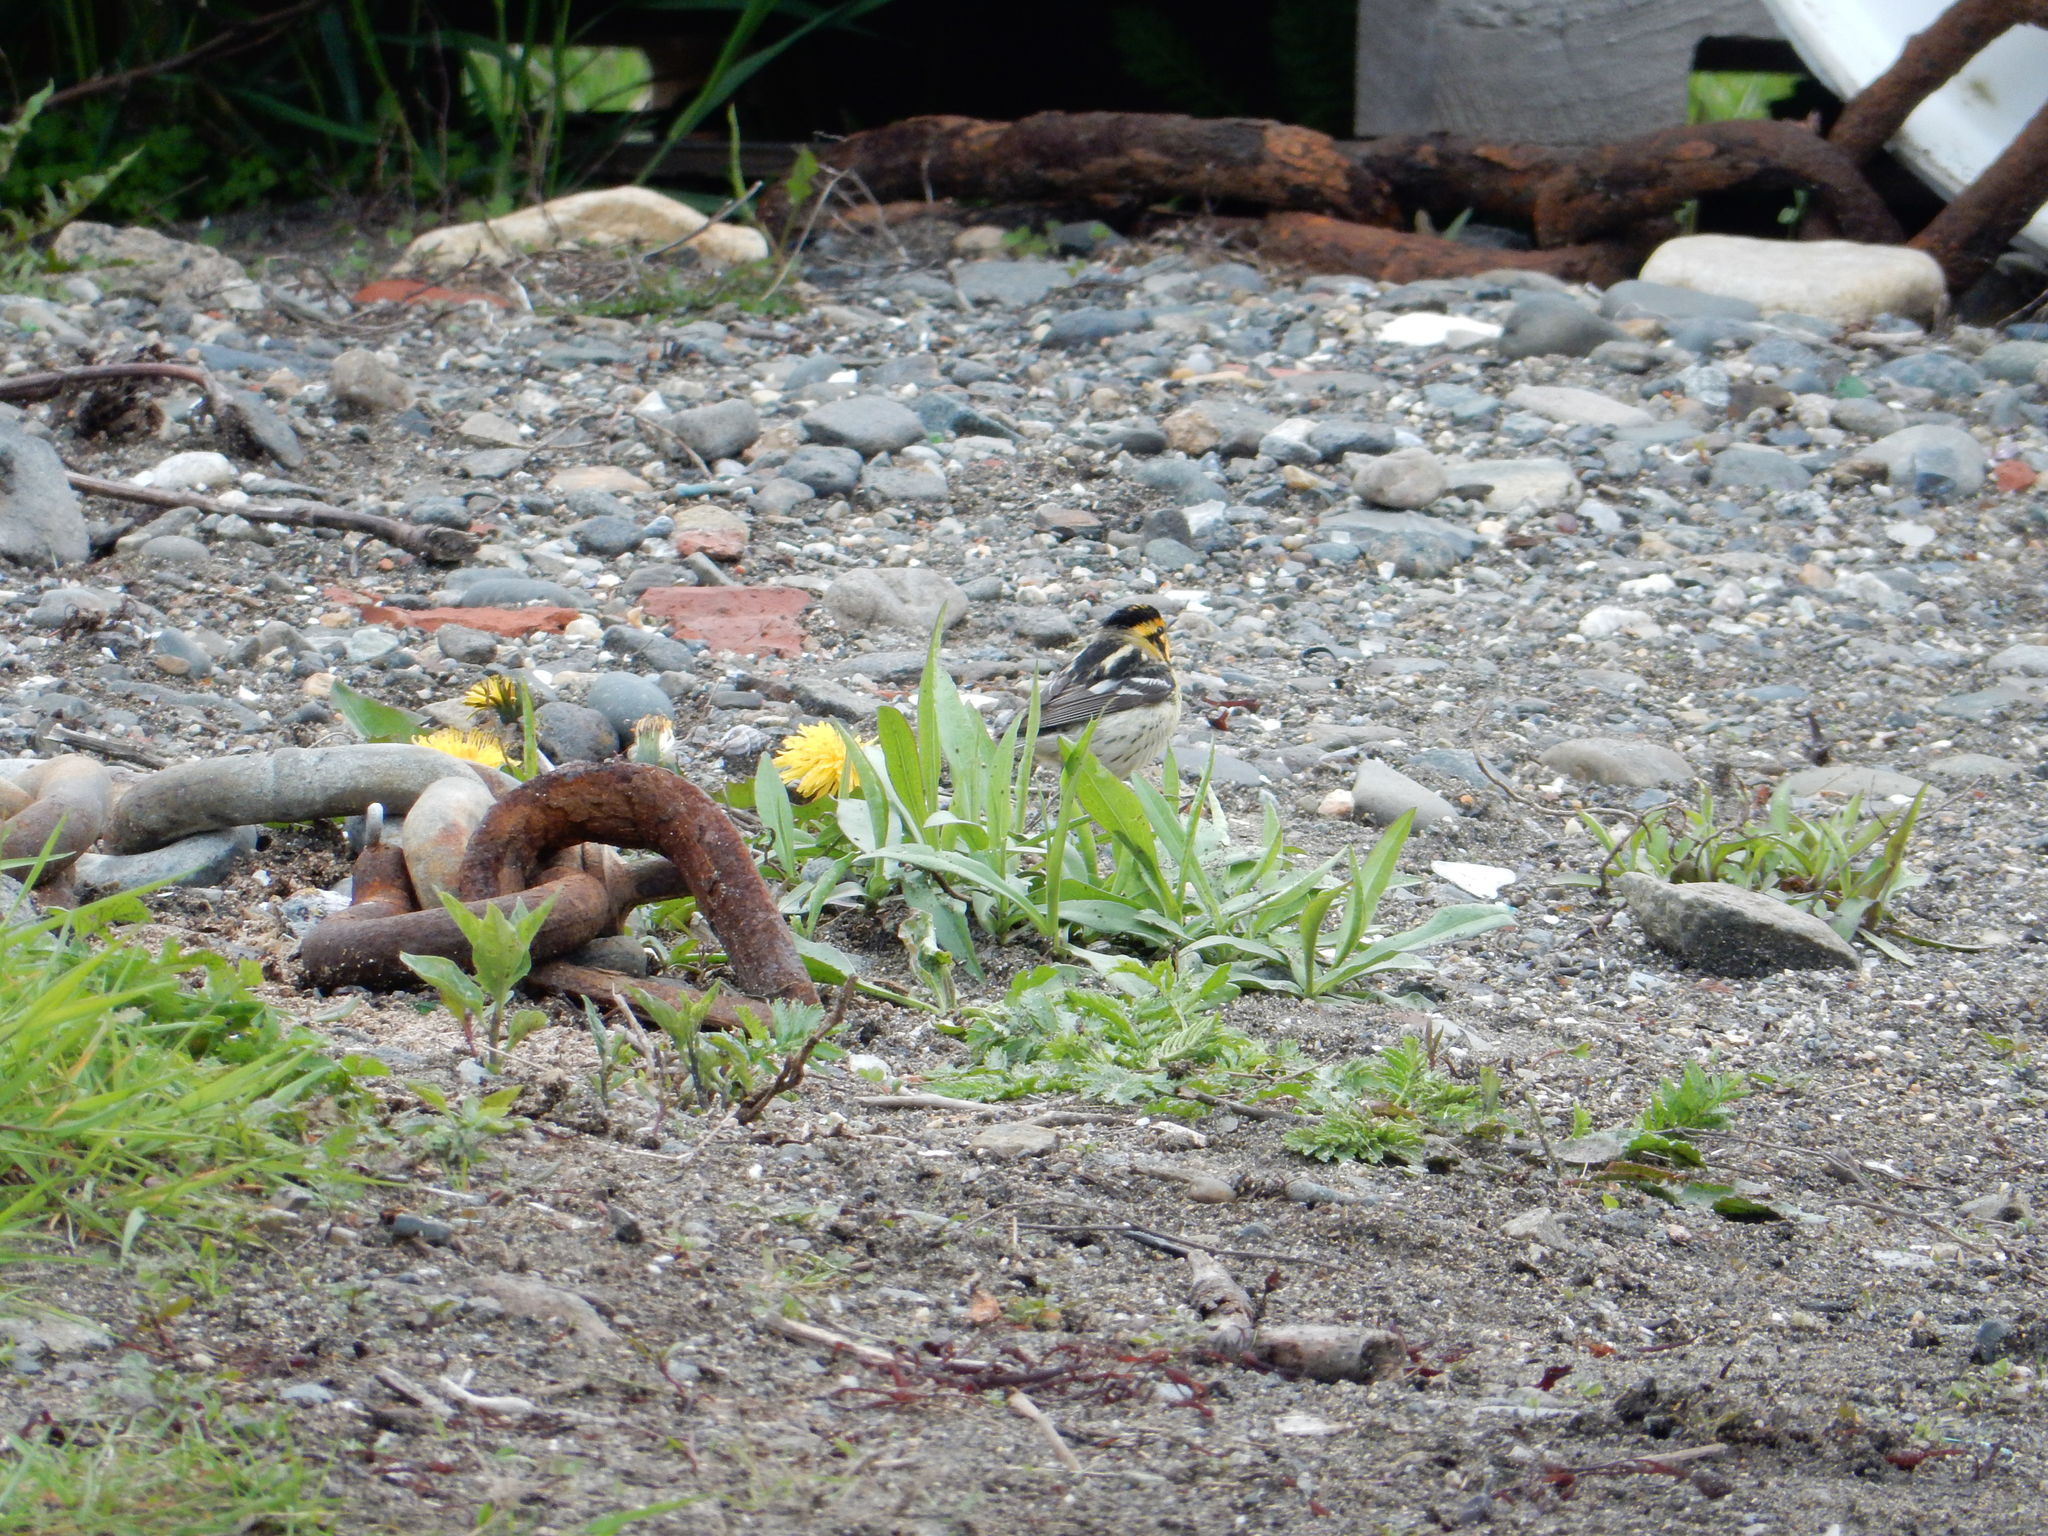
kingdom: Animalia
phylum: Chordata
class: Aves
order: Passeriformes
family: Parulidae
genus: Setophaga
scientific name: Setophaga fusca
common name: Blackburnian warbler
